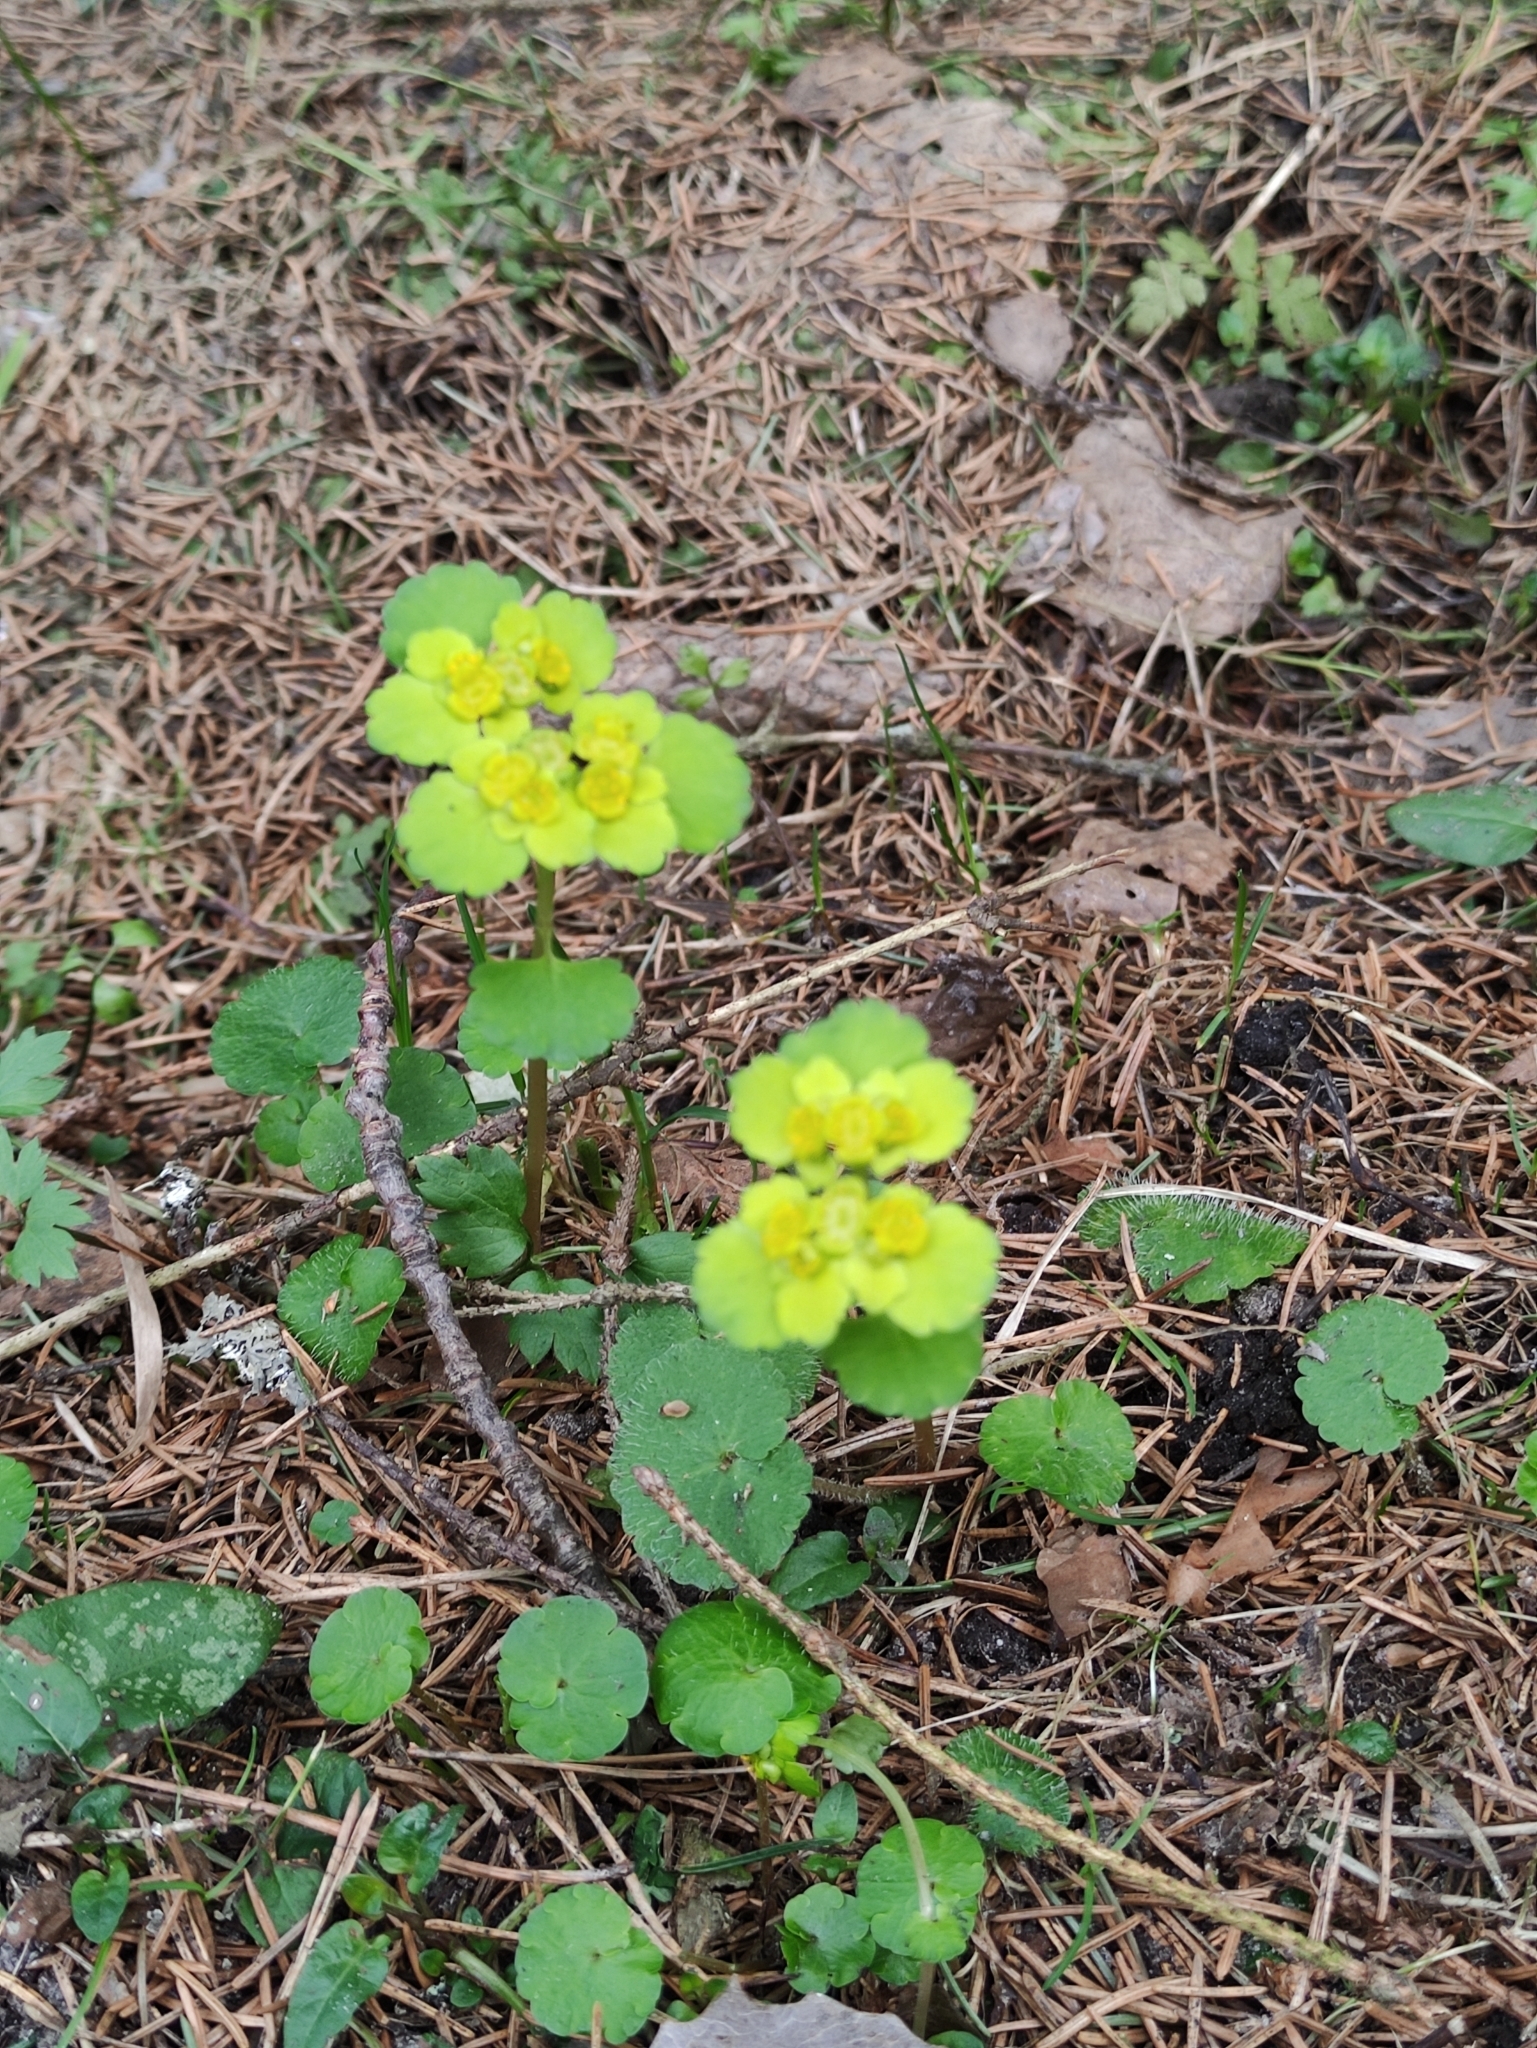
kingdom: Plantae
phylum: Tracheophyta
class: Magnoliopsida
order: Saxifragales
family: Saxifragaceae
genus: Chrysosplenium
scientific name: Chrysosplenium alternifolium
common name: Alternate-leaved golden-saxifrage
